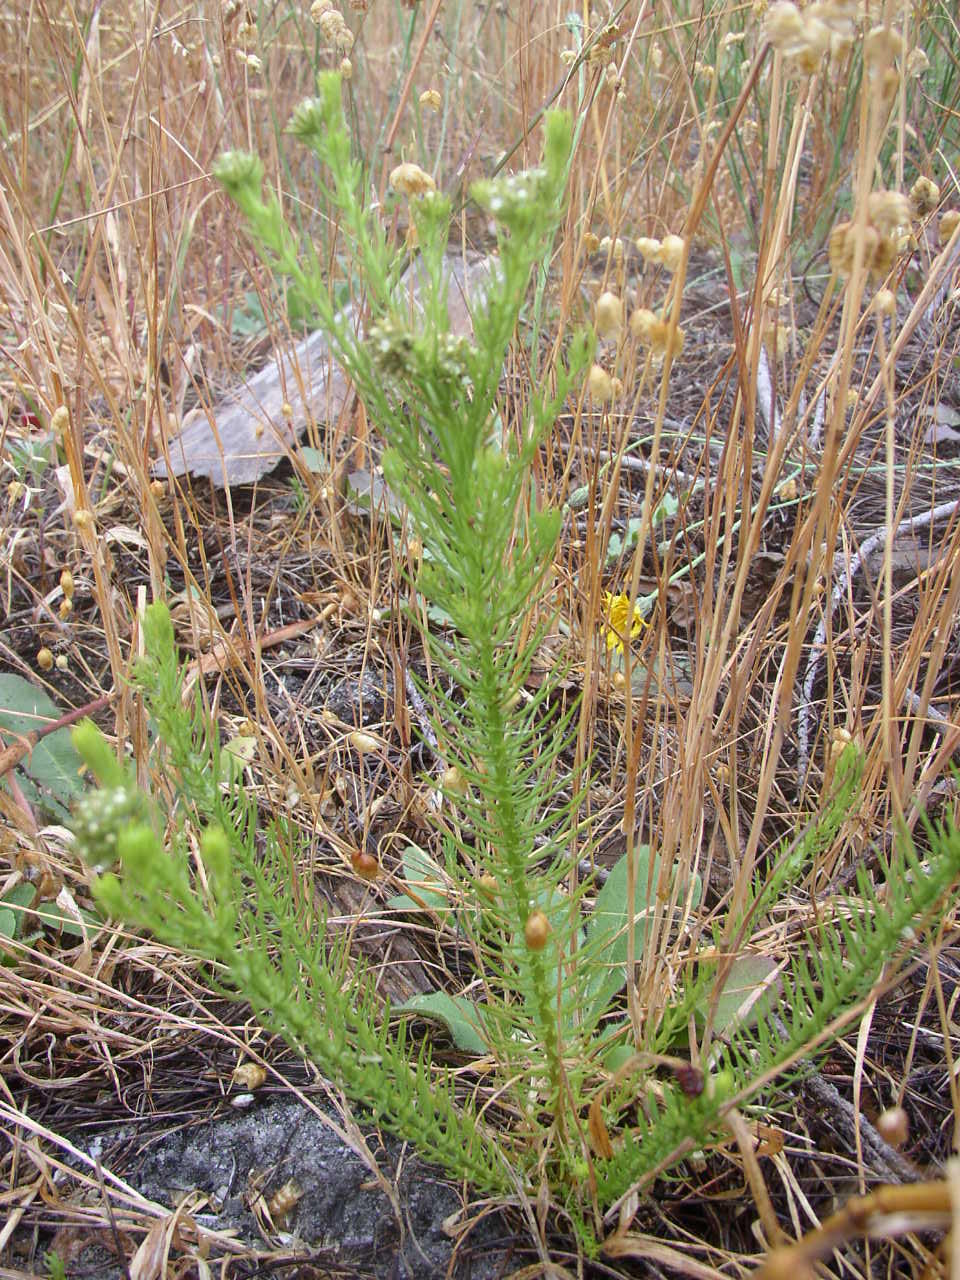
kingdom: Plantae
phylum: Tracheophyta
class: Magnoliopsida
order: Santalales
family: Thesiaceae
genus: Thesium
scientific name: Thesium scabrum
